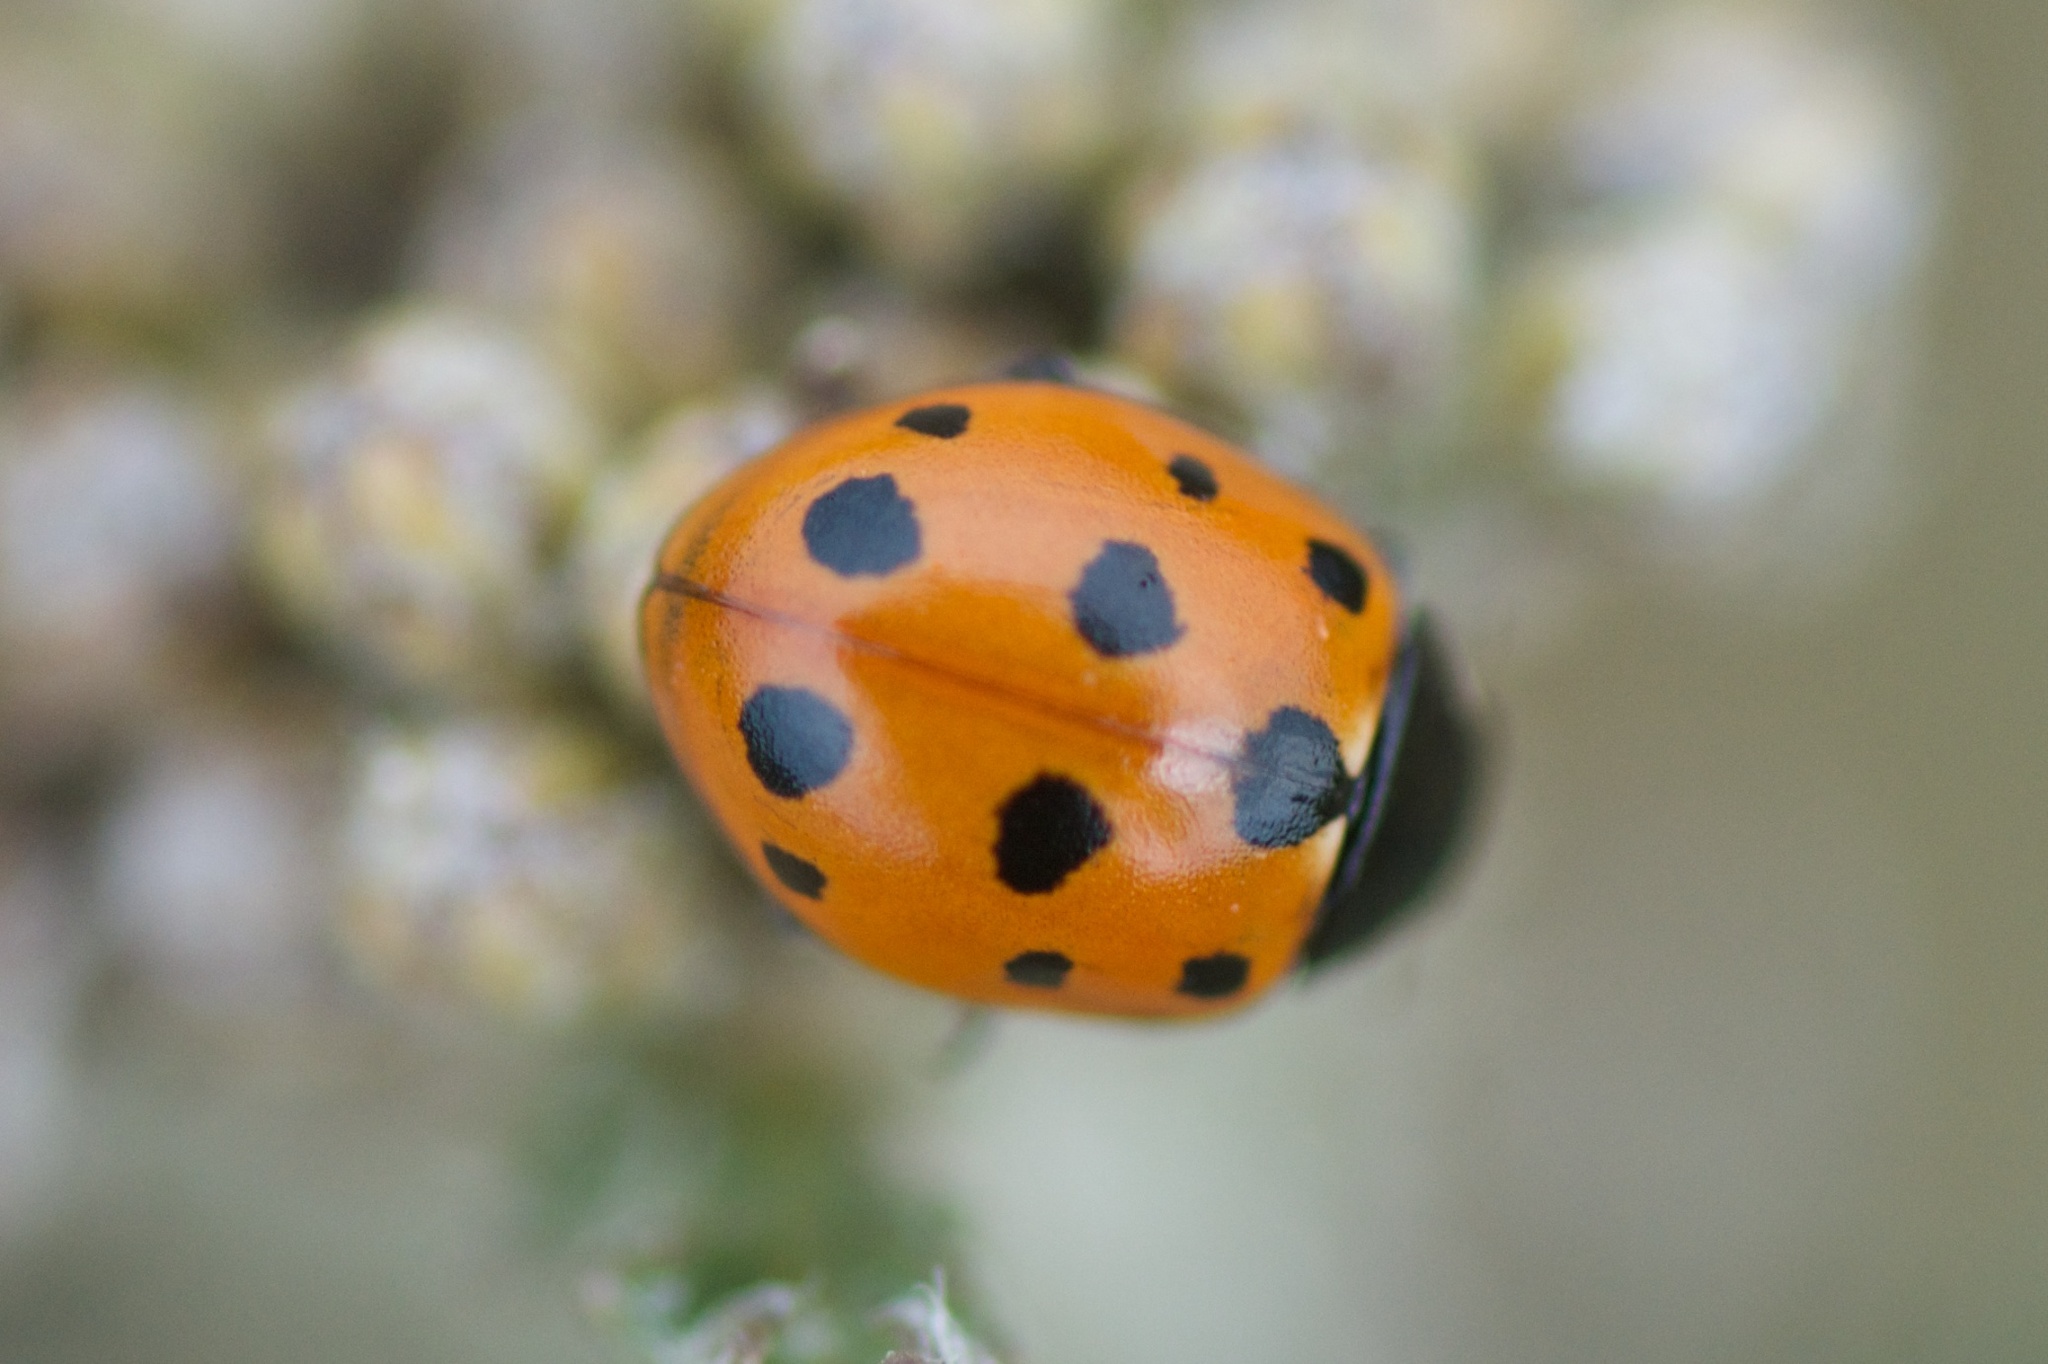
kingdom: Animalia
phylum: Arthropoda
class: Insecta
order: Coleoptera
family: Coccinellidae
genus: Coccinella
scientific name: Coccinella undecimpunctata
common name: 11-spot ladybird
